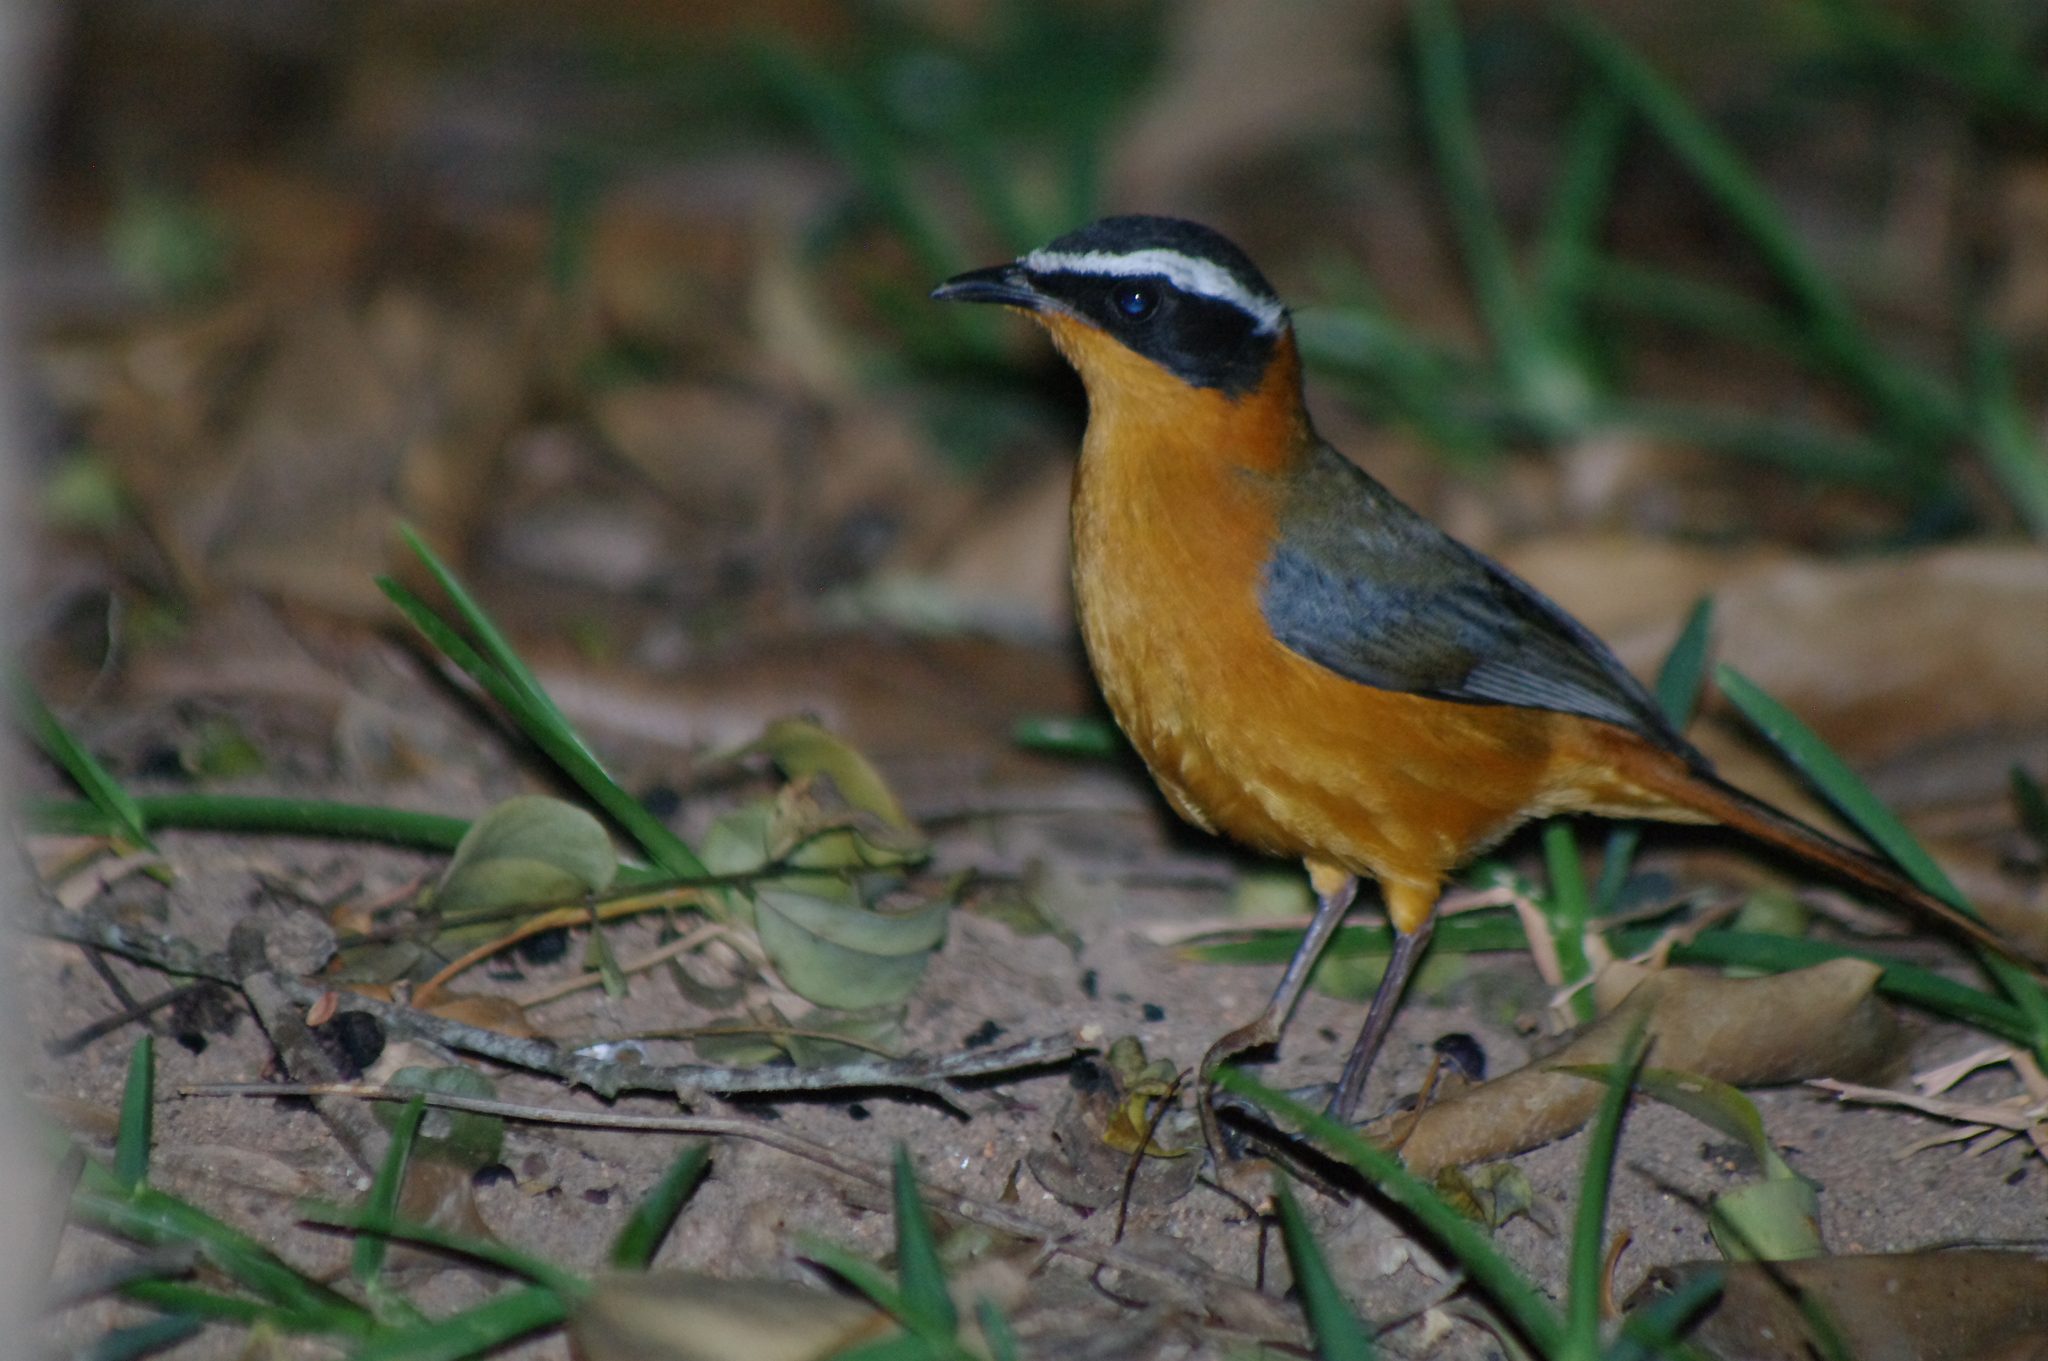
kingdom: Animalia
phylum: Chordata
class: Aves
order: Passeriformes
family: Muscicapidae
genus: Cossypha
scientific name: Cossypha heuglini
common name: White-browed robin-chat
